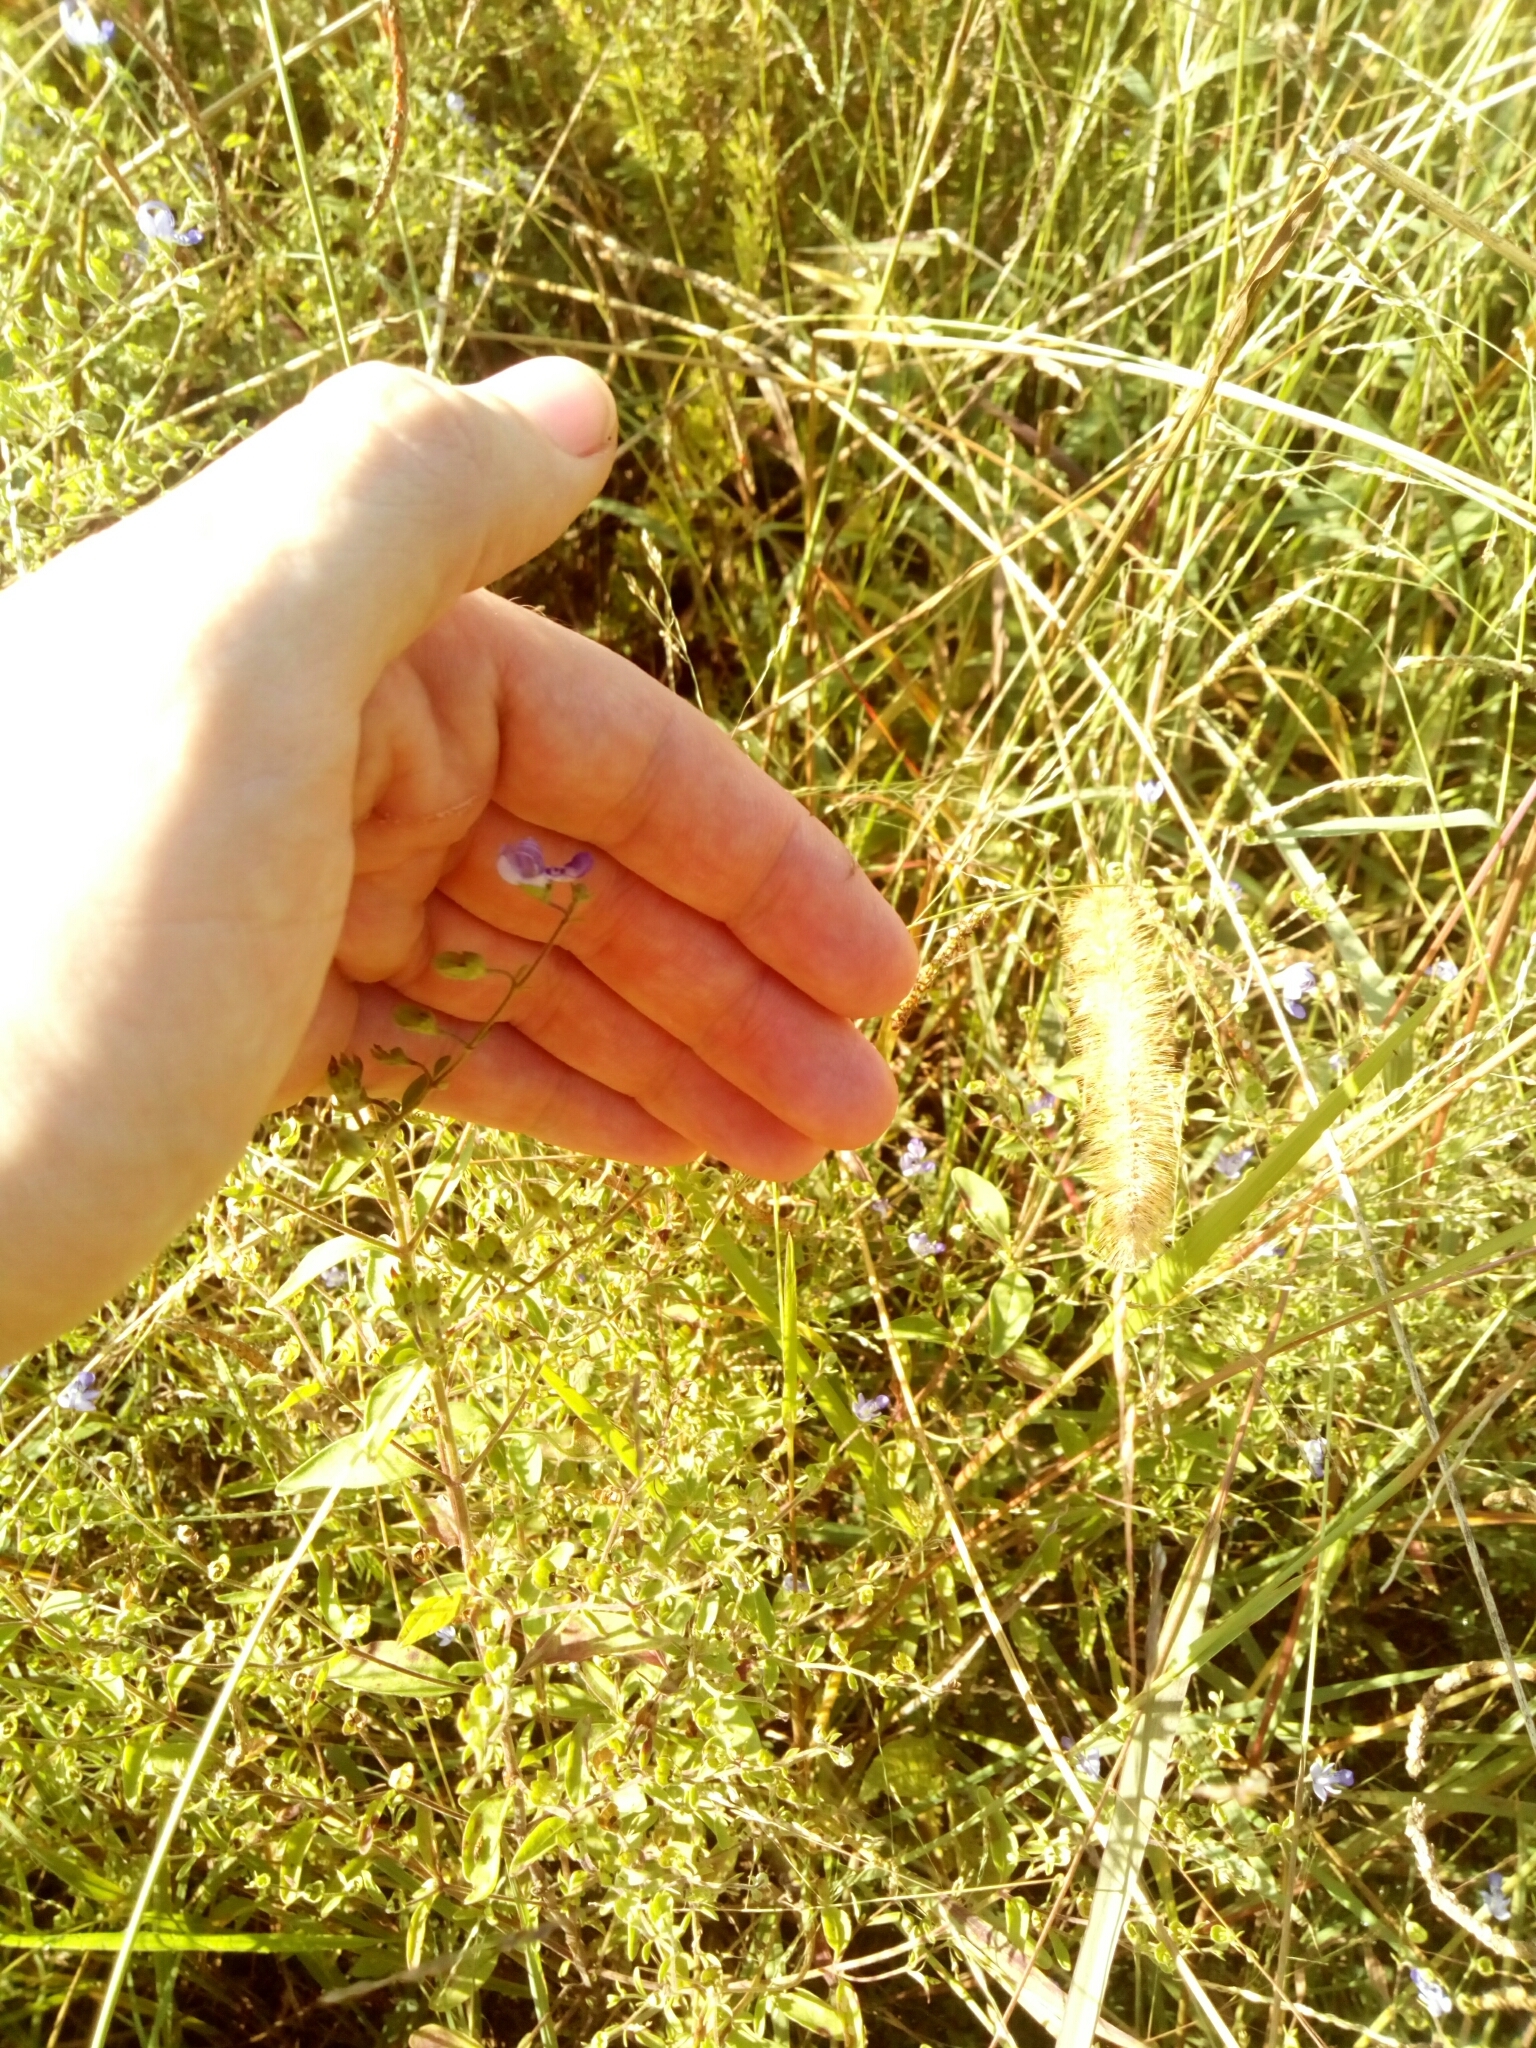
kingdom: Plantae
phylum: Tracheophyta
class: Magnoliopsida
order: Lamiales
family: Lamiaceae
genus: Trichostema
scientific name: Trichostema dichotomum
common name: Bastard pennyroyal
